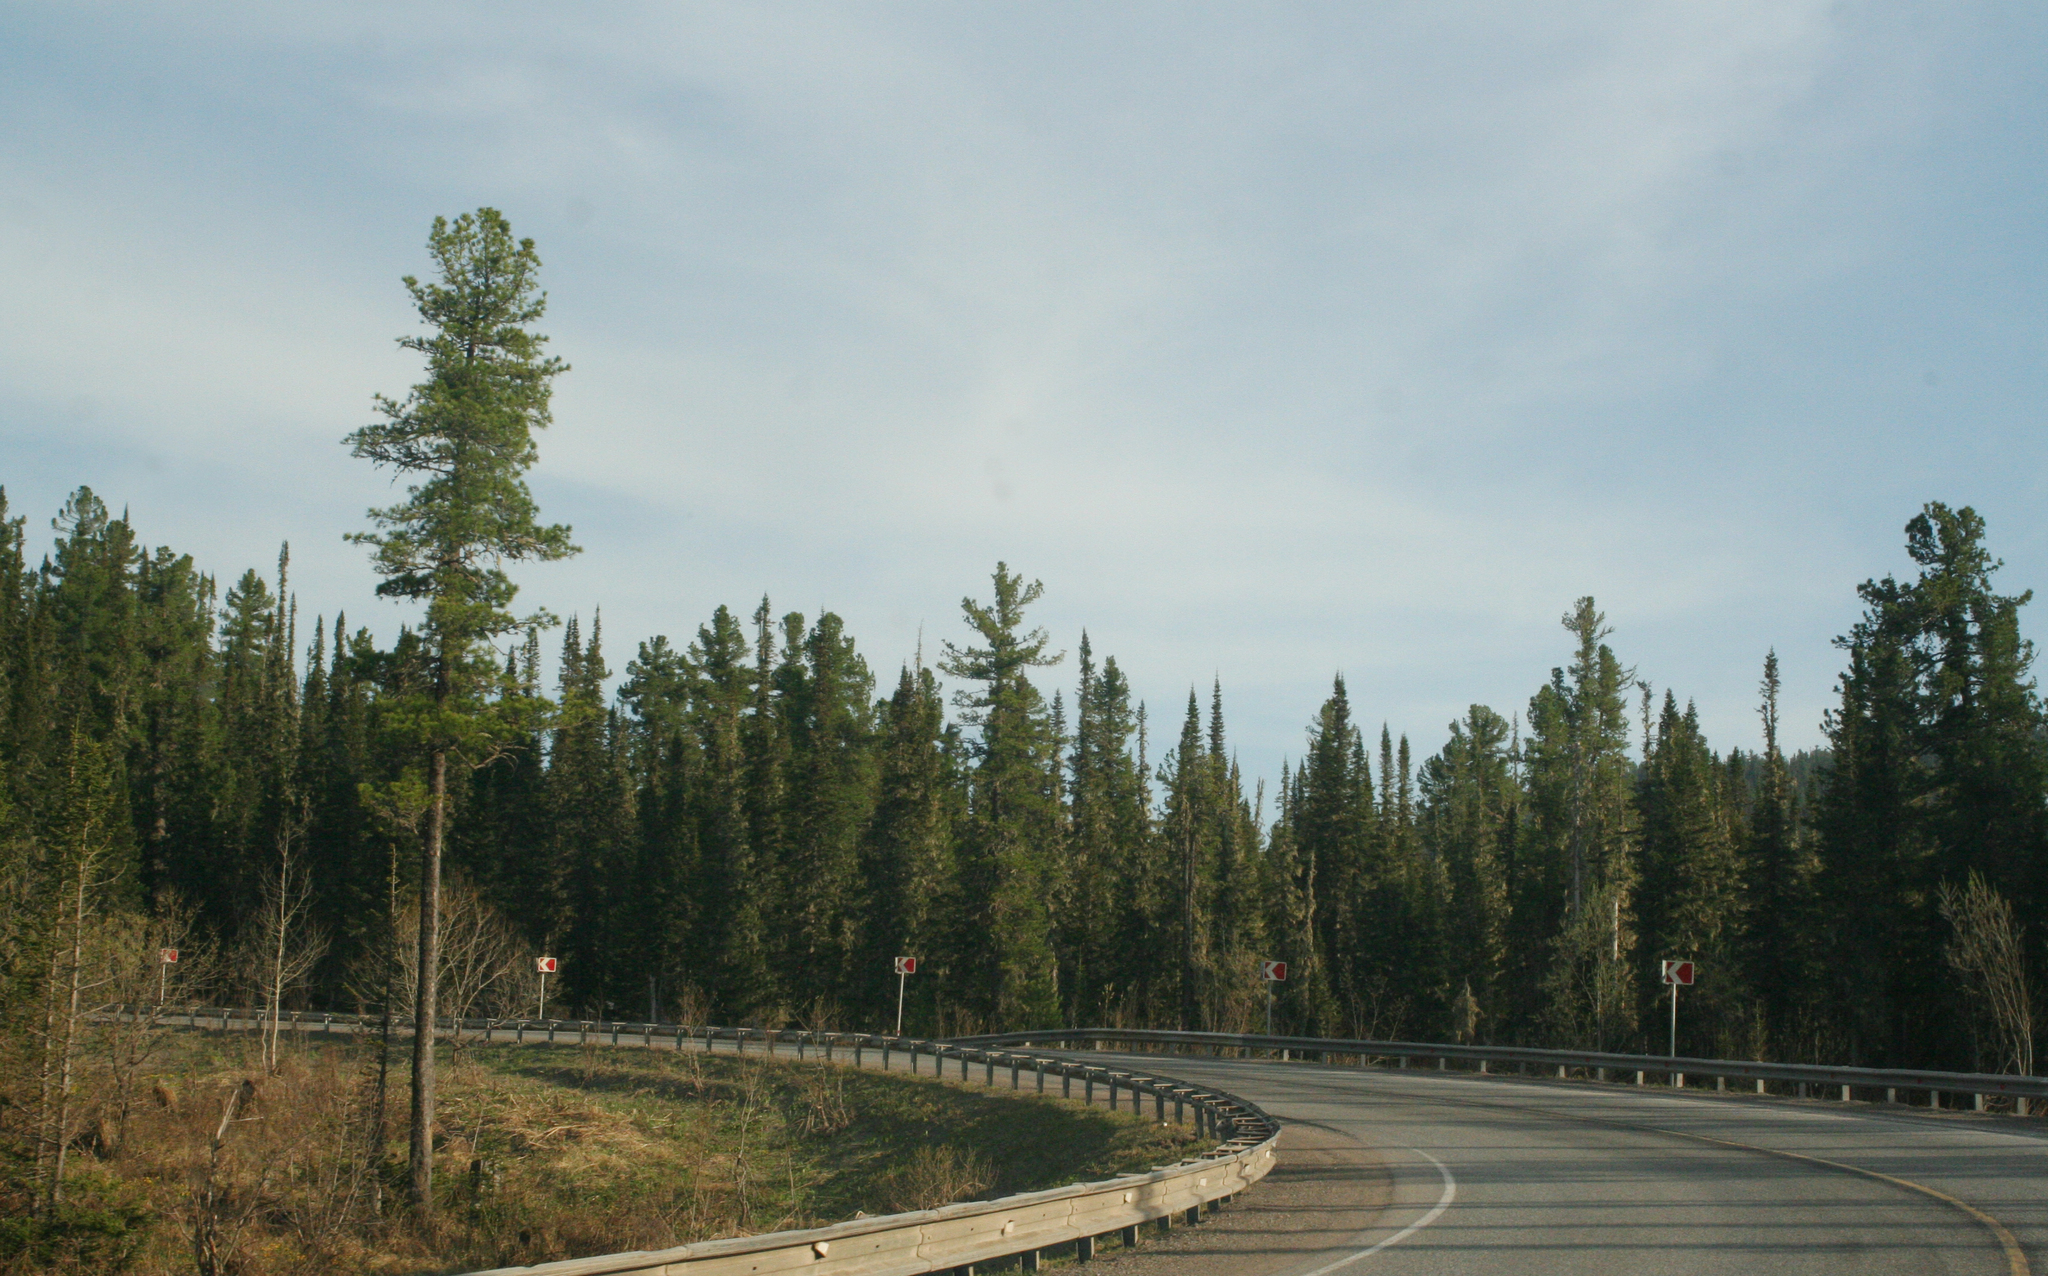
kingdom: Plantae
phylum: Tracheophyta
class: Pinopsida
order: Pinales
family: Pinaceae
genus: Abies
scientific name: Abies sibirica
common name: Siberian fir
